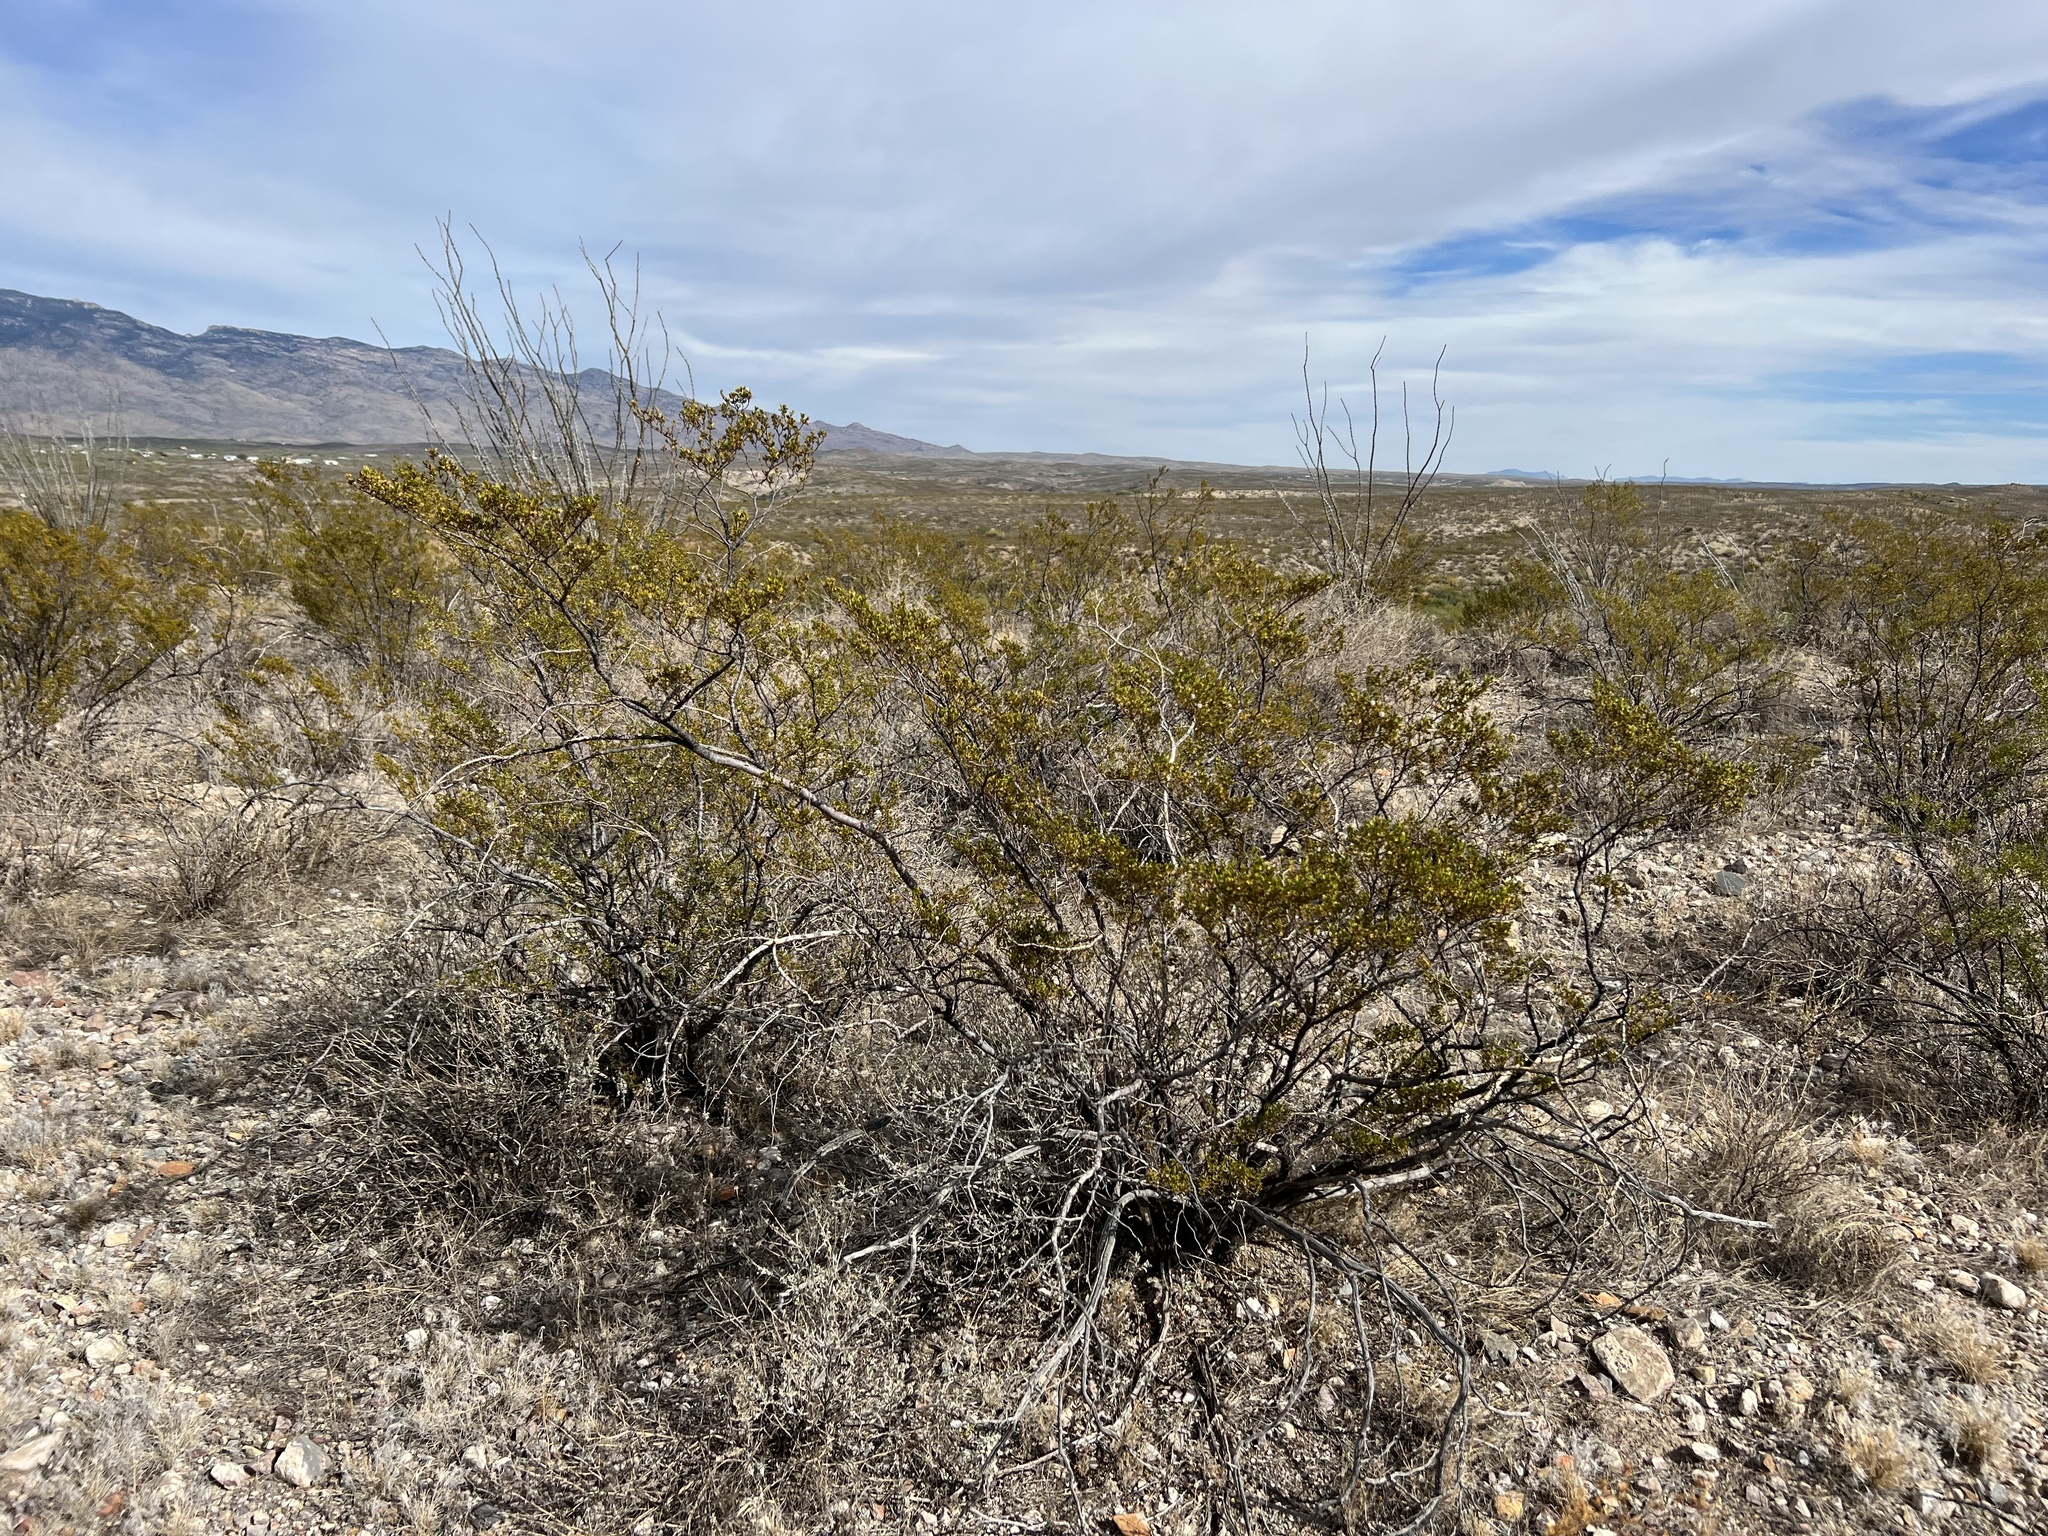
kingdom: Plantae
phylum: Tracheophyta
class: Magnoliopsida
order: Zygophyllales
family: Zygophyllaceae
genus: Larrea
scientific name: Larrea tridentata
